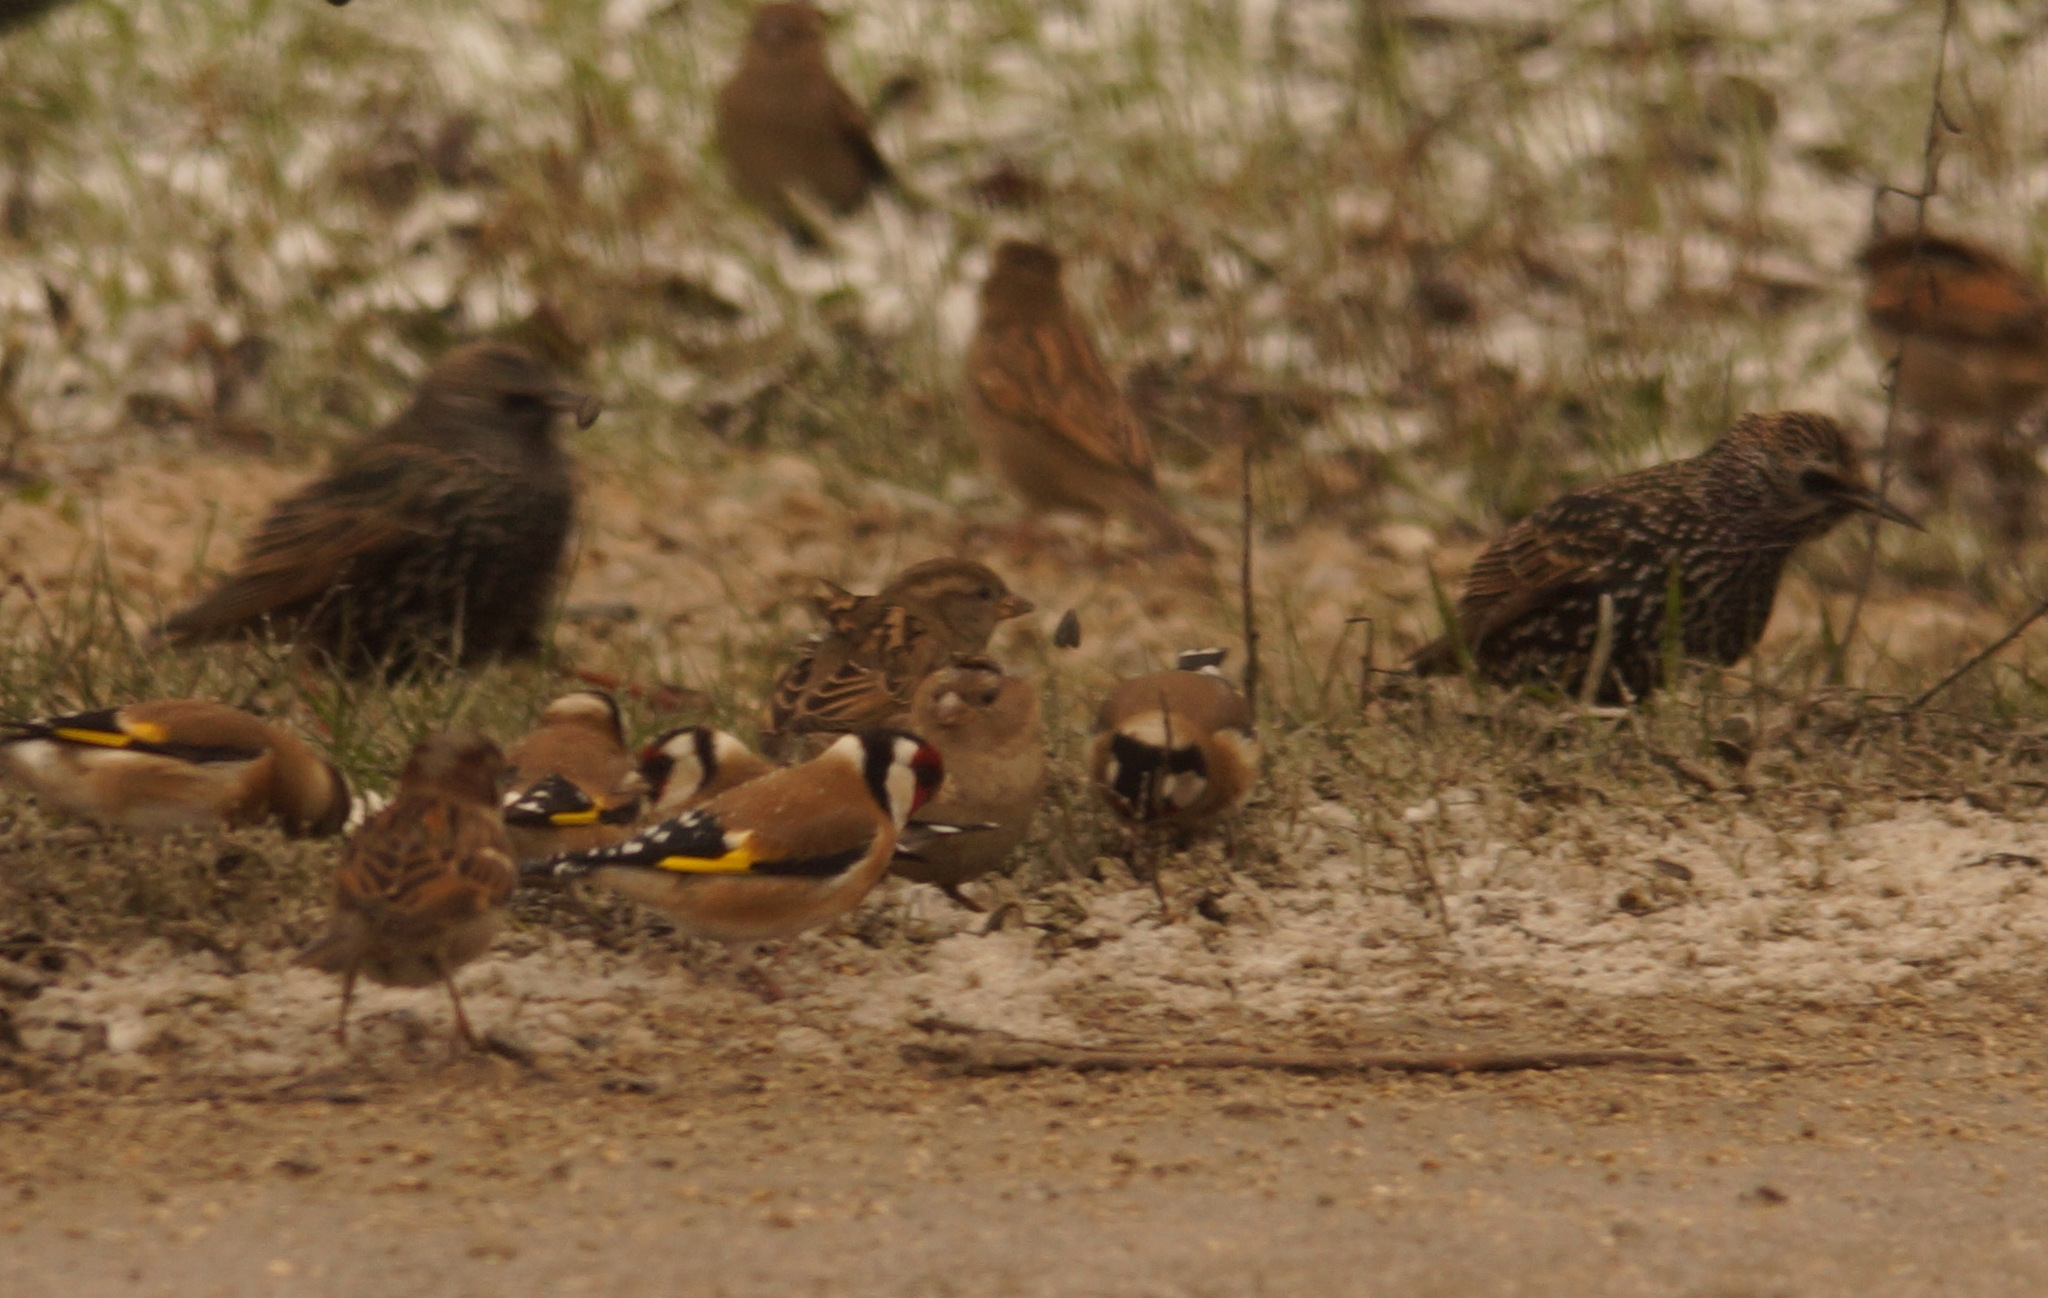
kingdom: Animalia
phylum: Chordata
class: Aves
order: Passeriformes
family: Fringillidae
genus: Carduelis
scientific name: Carduelis carduelis
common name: European goldfinch
